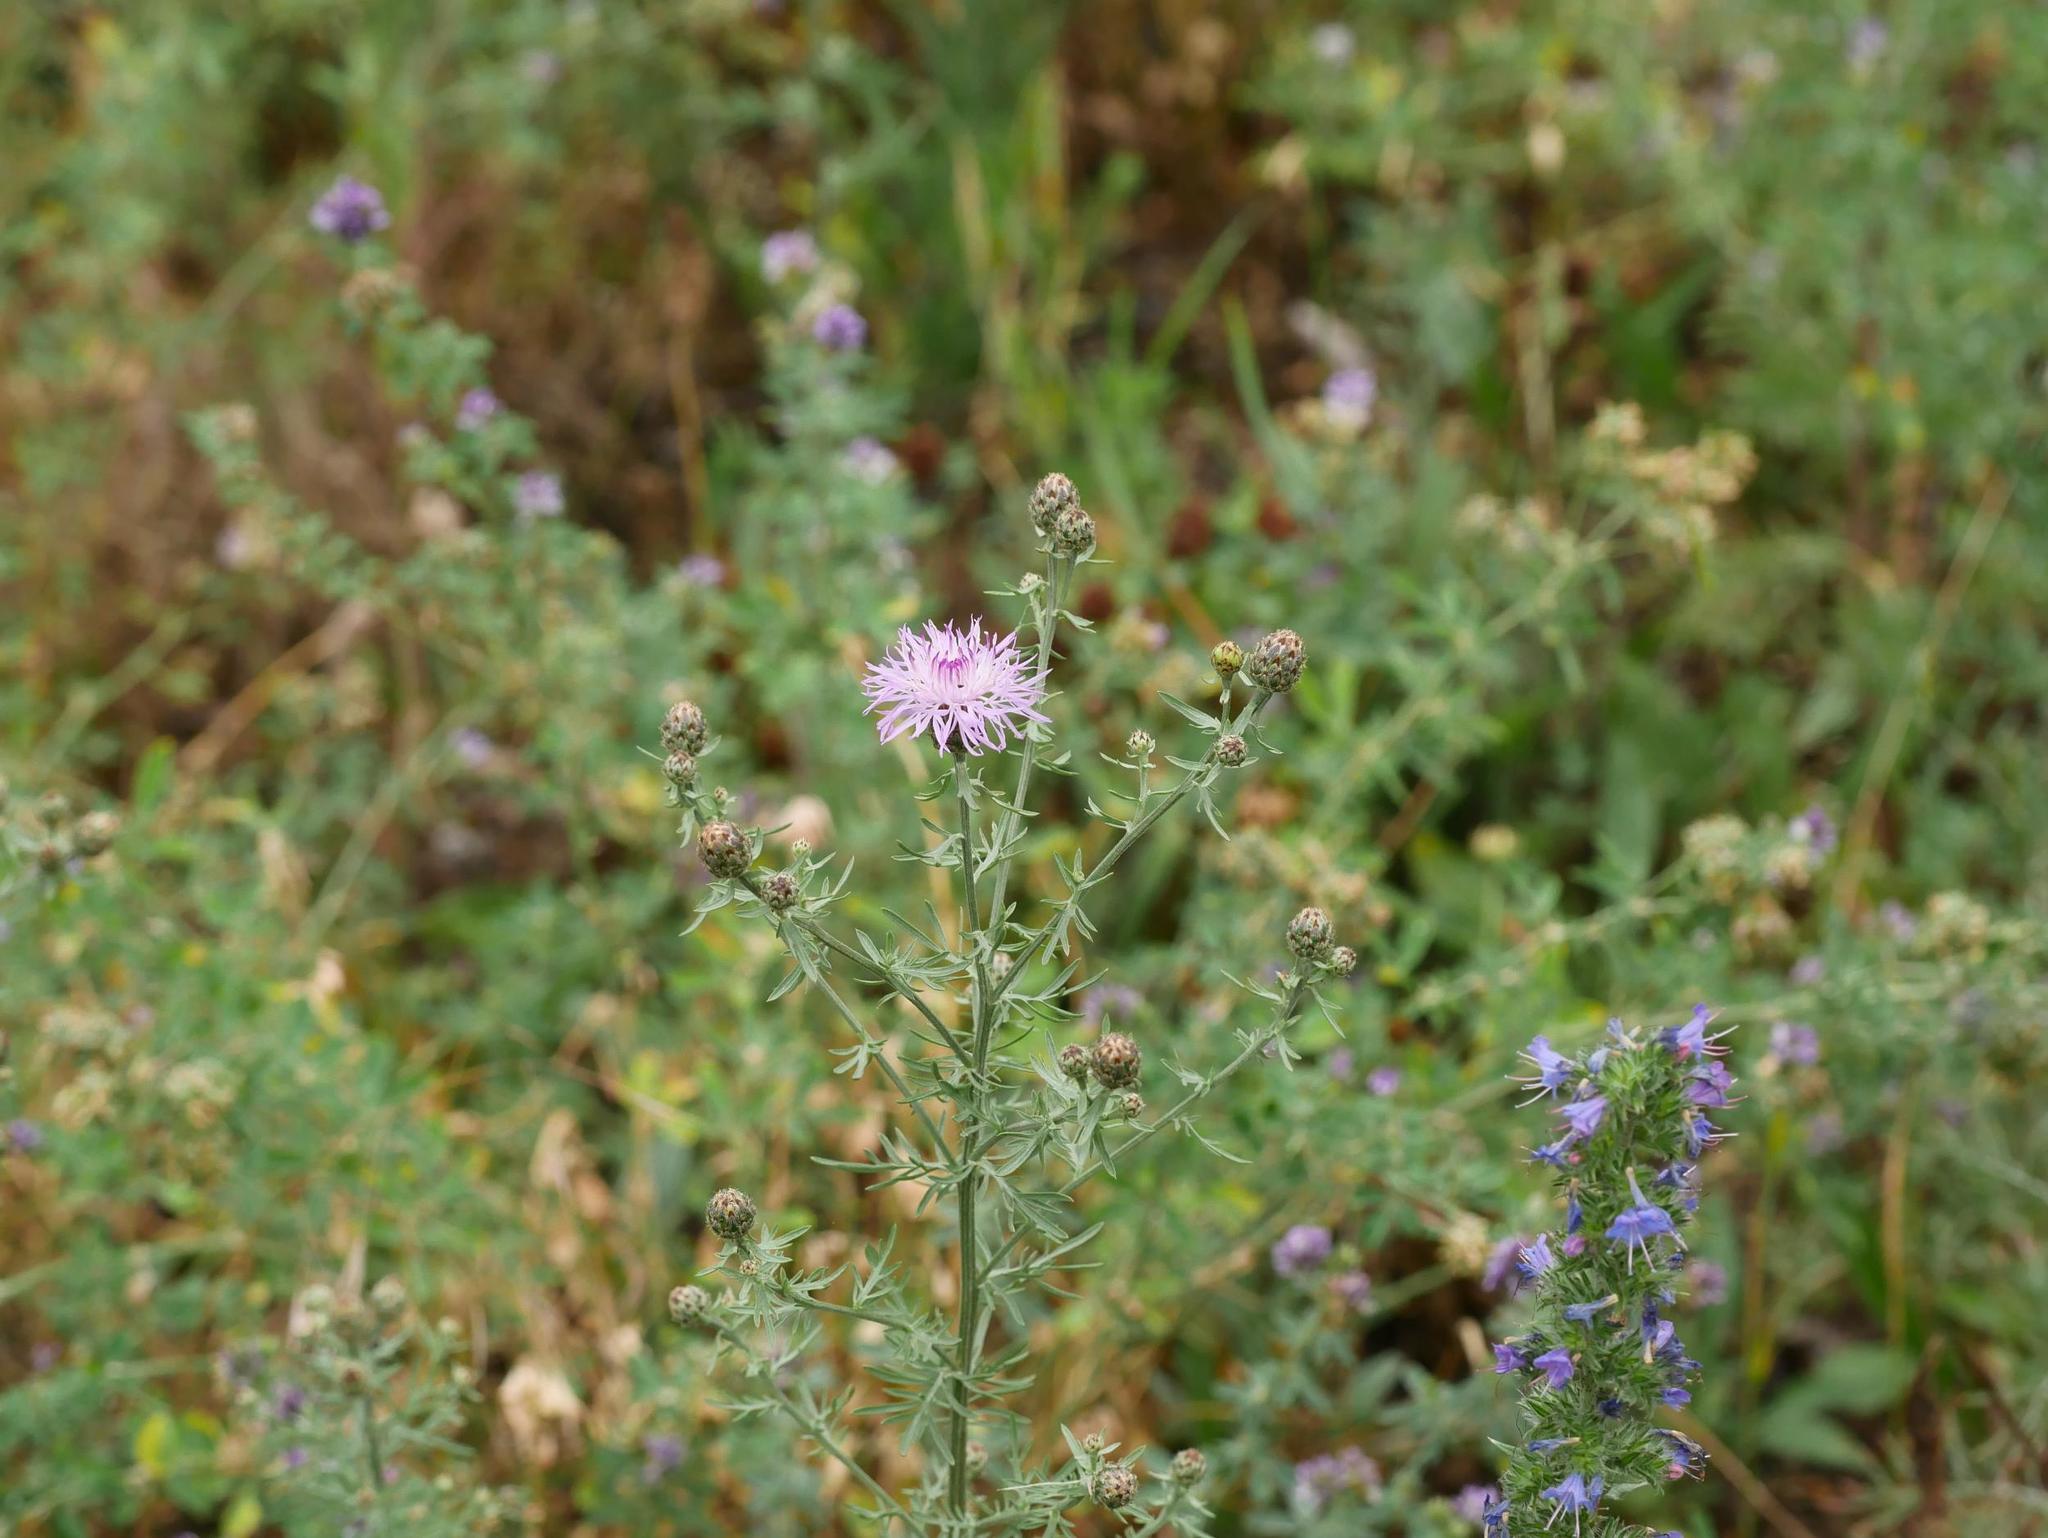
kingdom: Plantae
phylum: Tracheophyta
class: Magnoliopsida
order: Asterales
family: Asteraceae
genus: Centaurea
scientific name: Centaurea stoebe
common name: Spotted knapweed
